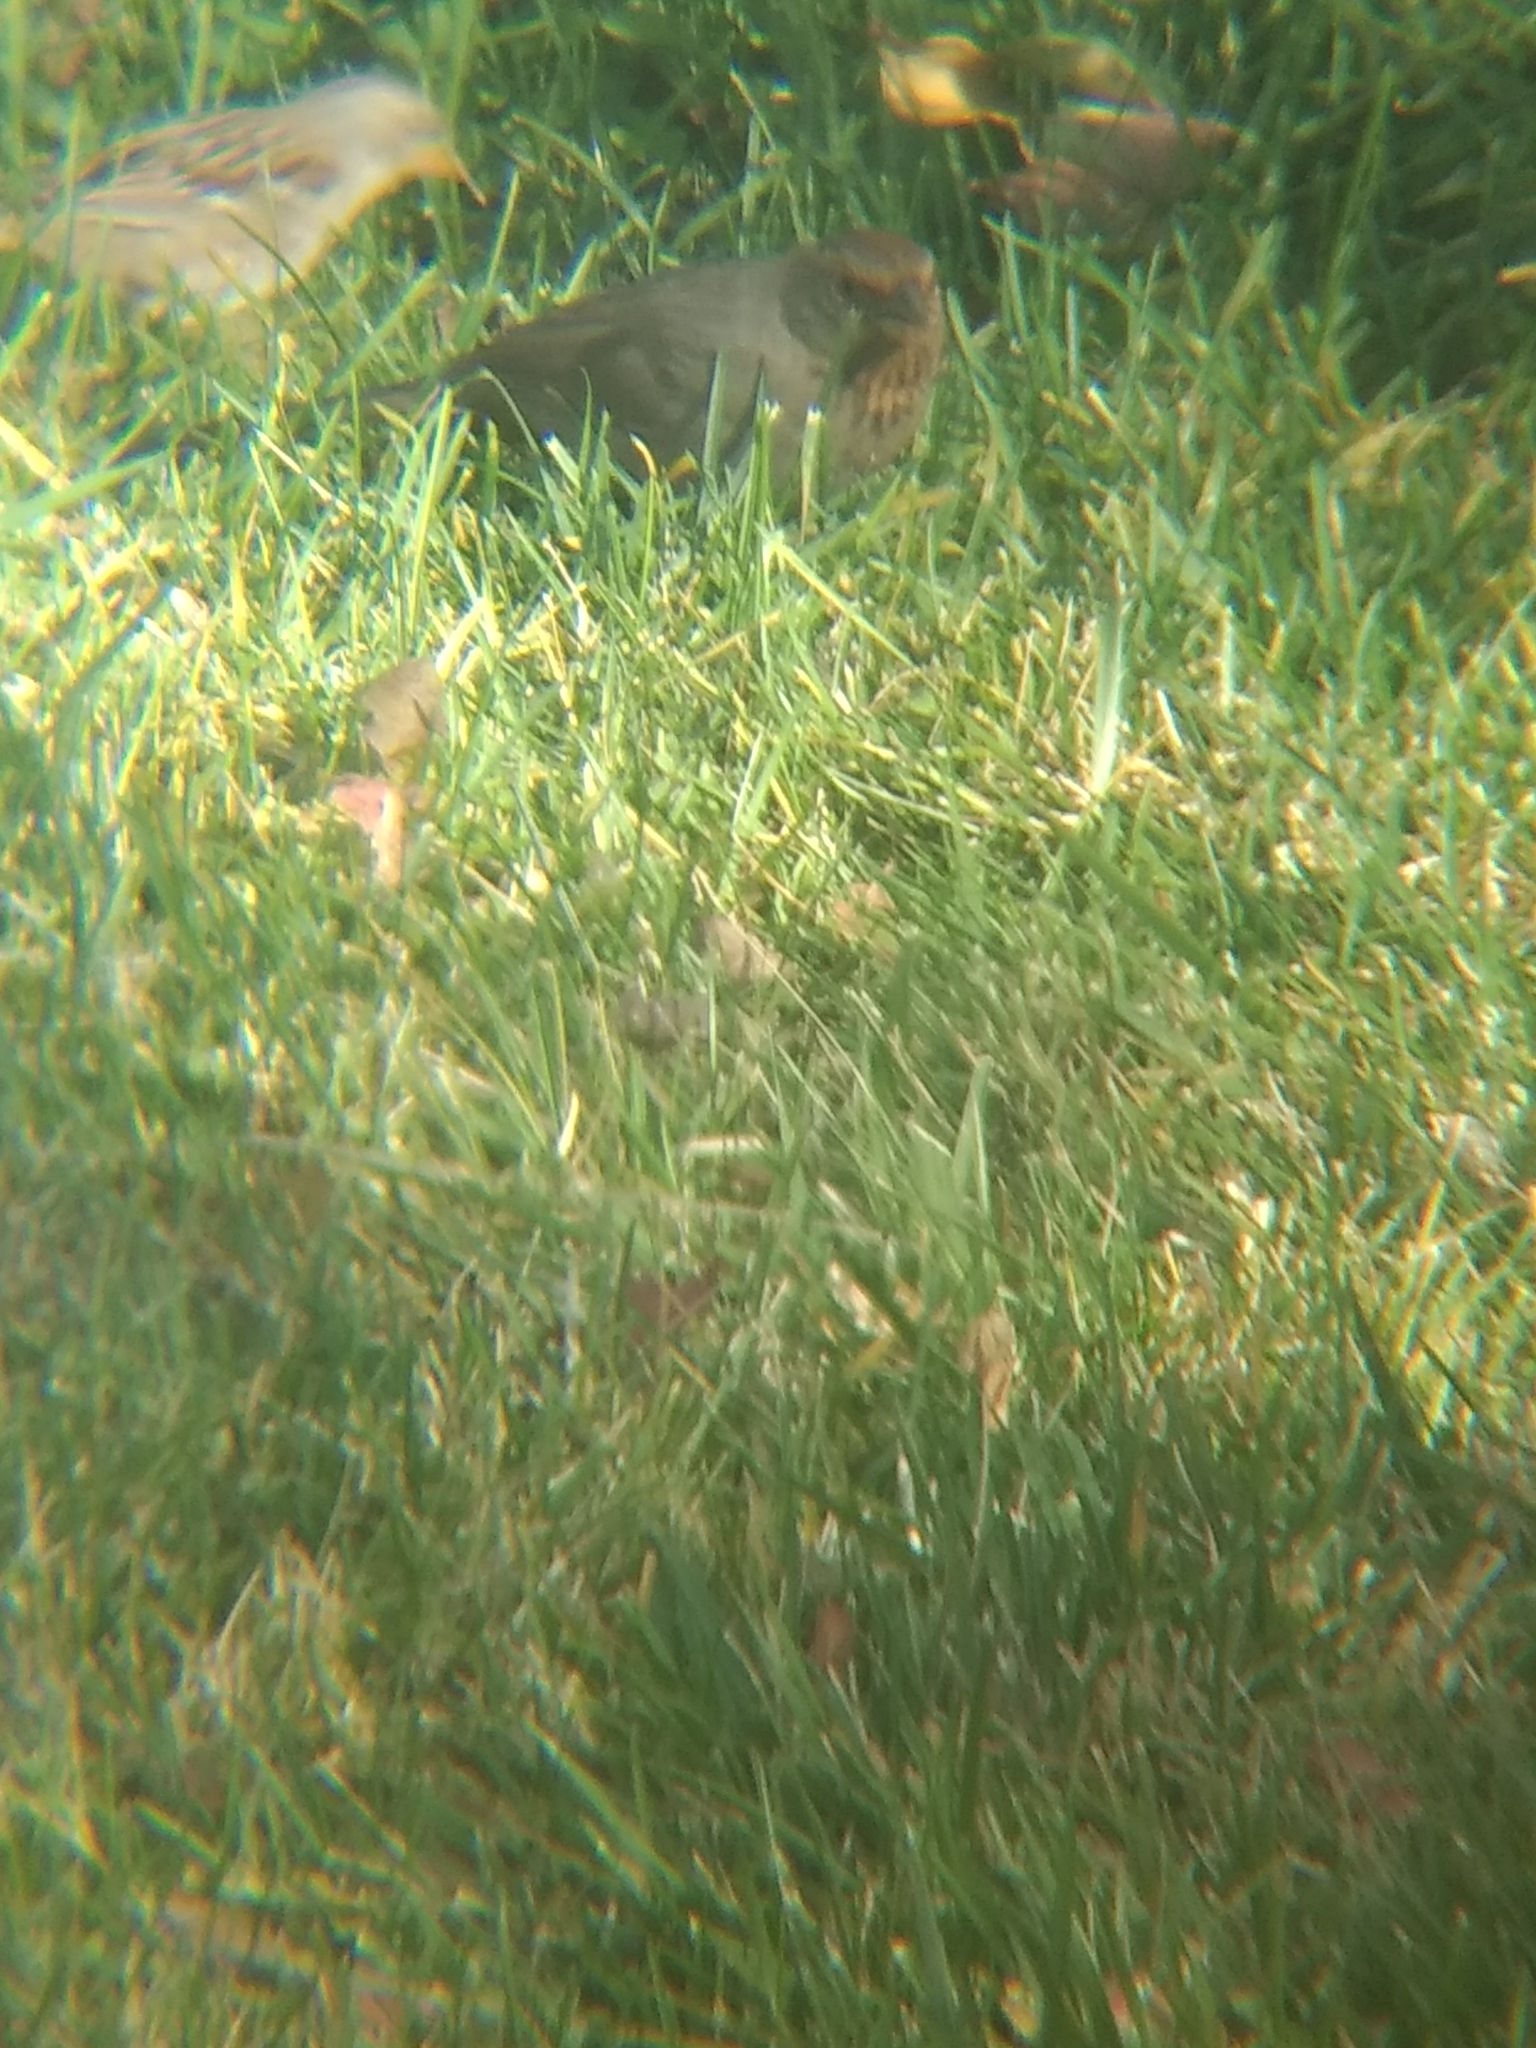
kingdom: Animalia
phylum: Chordata
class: Aves
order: Passeriformes
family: Passerellidae
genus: Melozone
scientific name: Melozone crissalis
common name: California towhee
